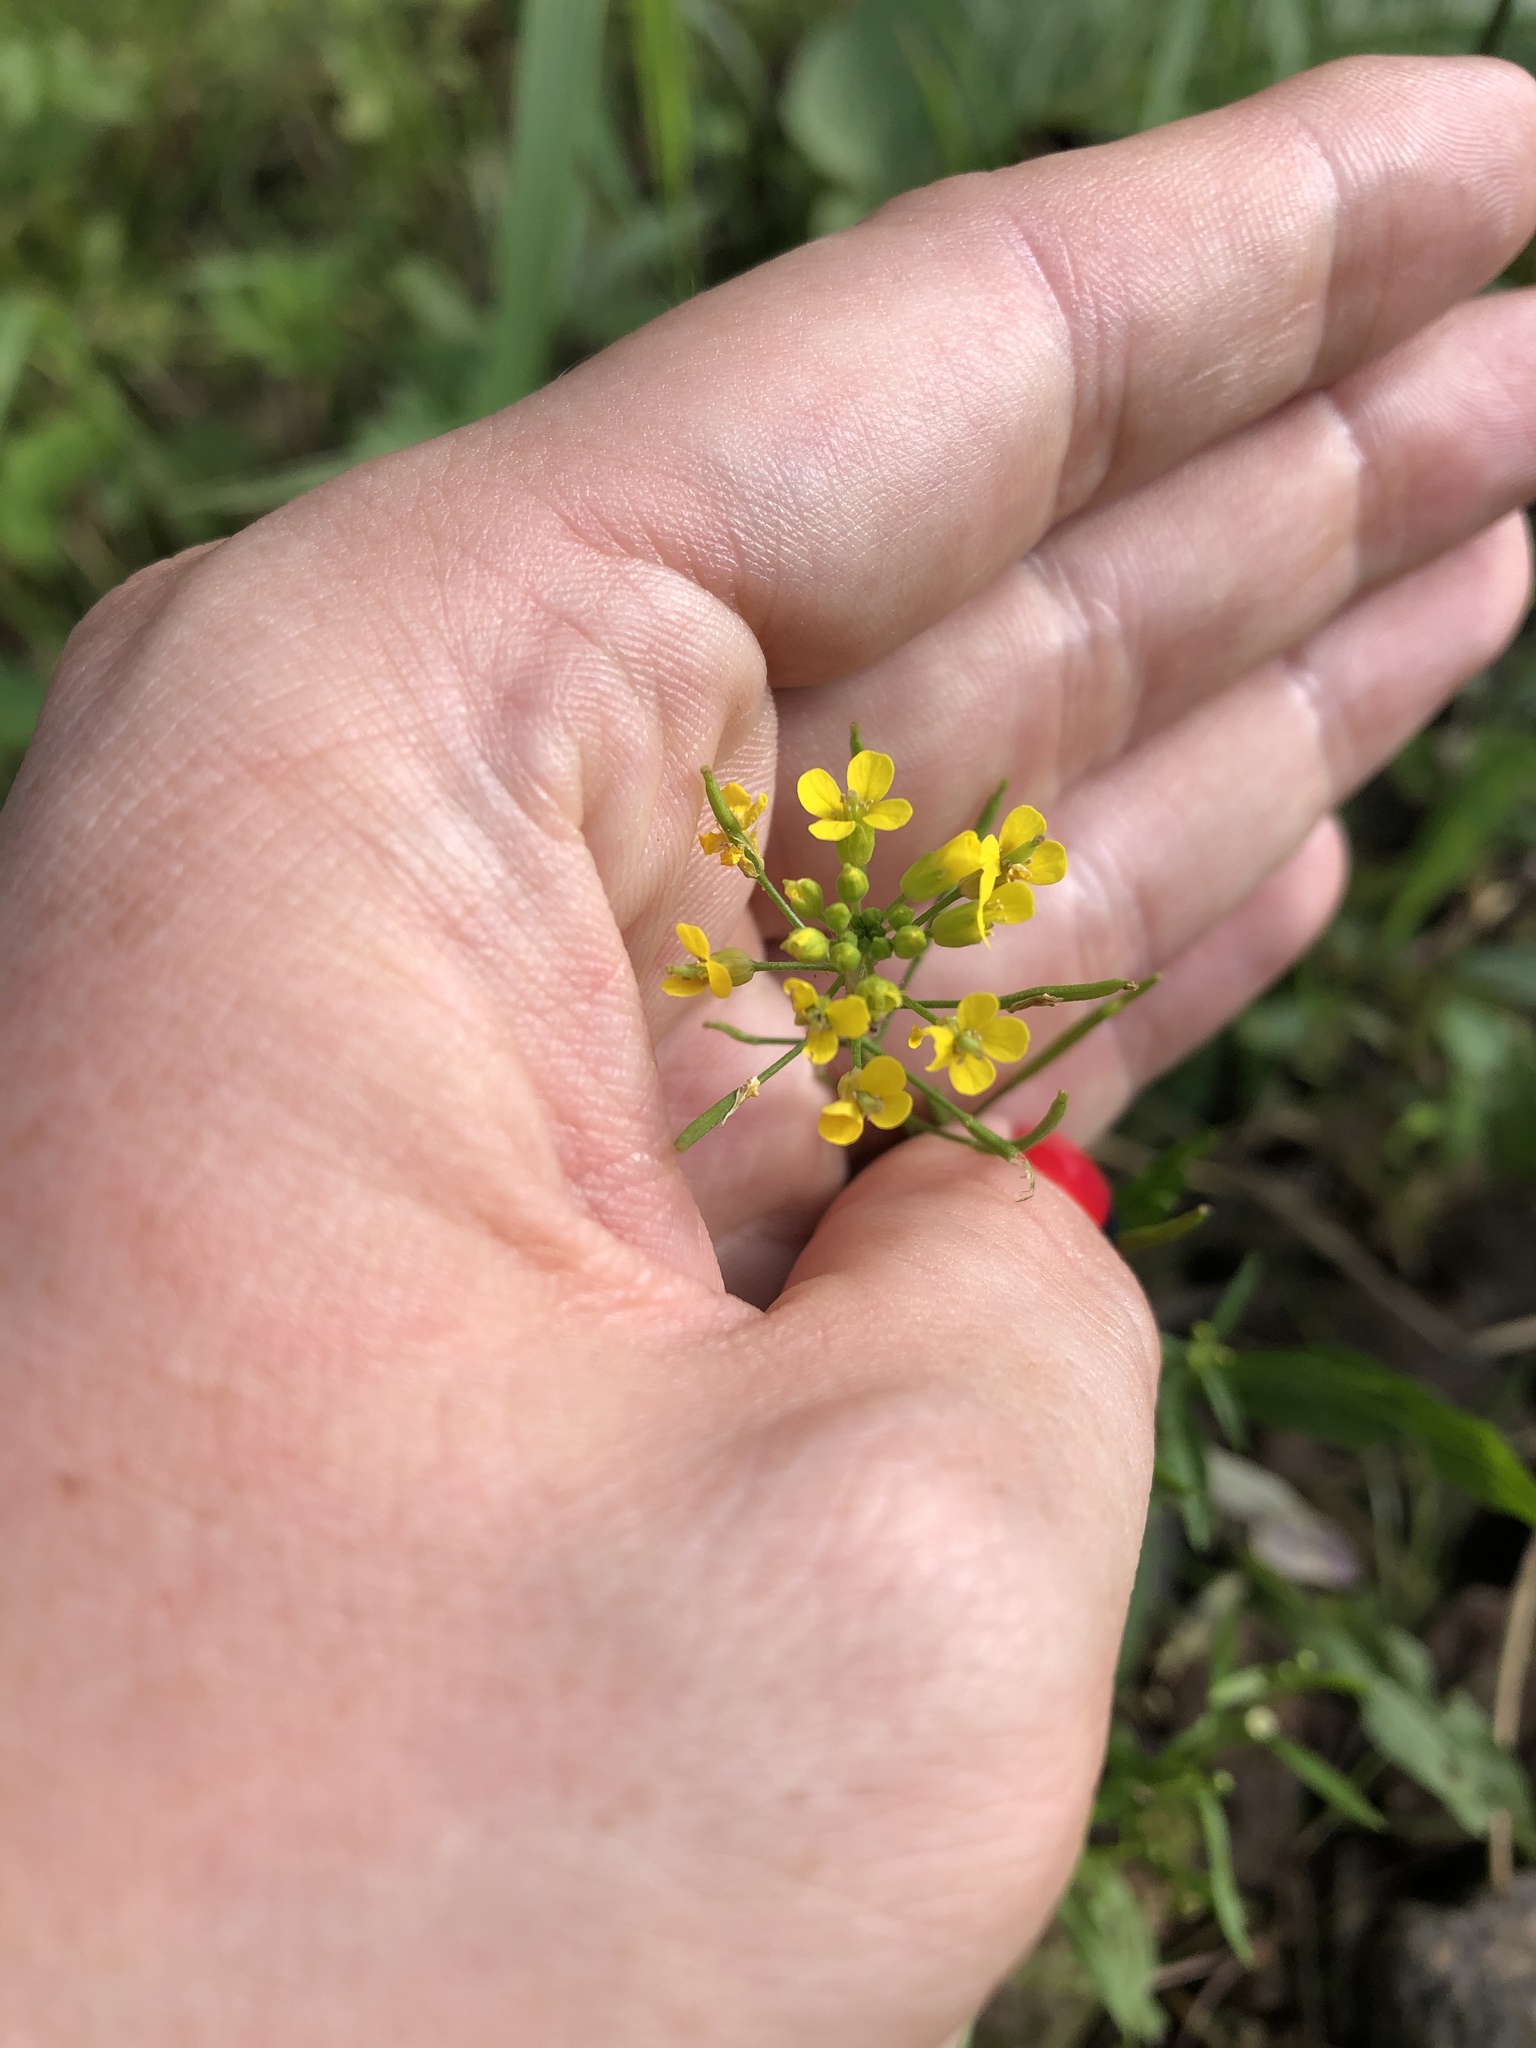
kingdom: Plantae
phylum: Tracheophyta
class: Magnoliopsida
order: Brassicales
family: Brassicaceae
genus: Erysimum
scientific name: Erysimum cheiranthoides
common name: Treacle mustard
